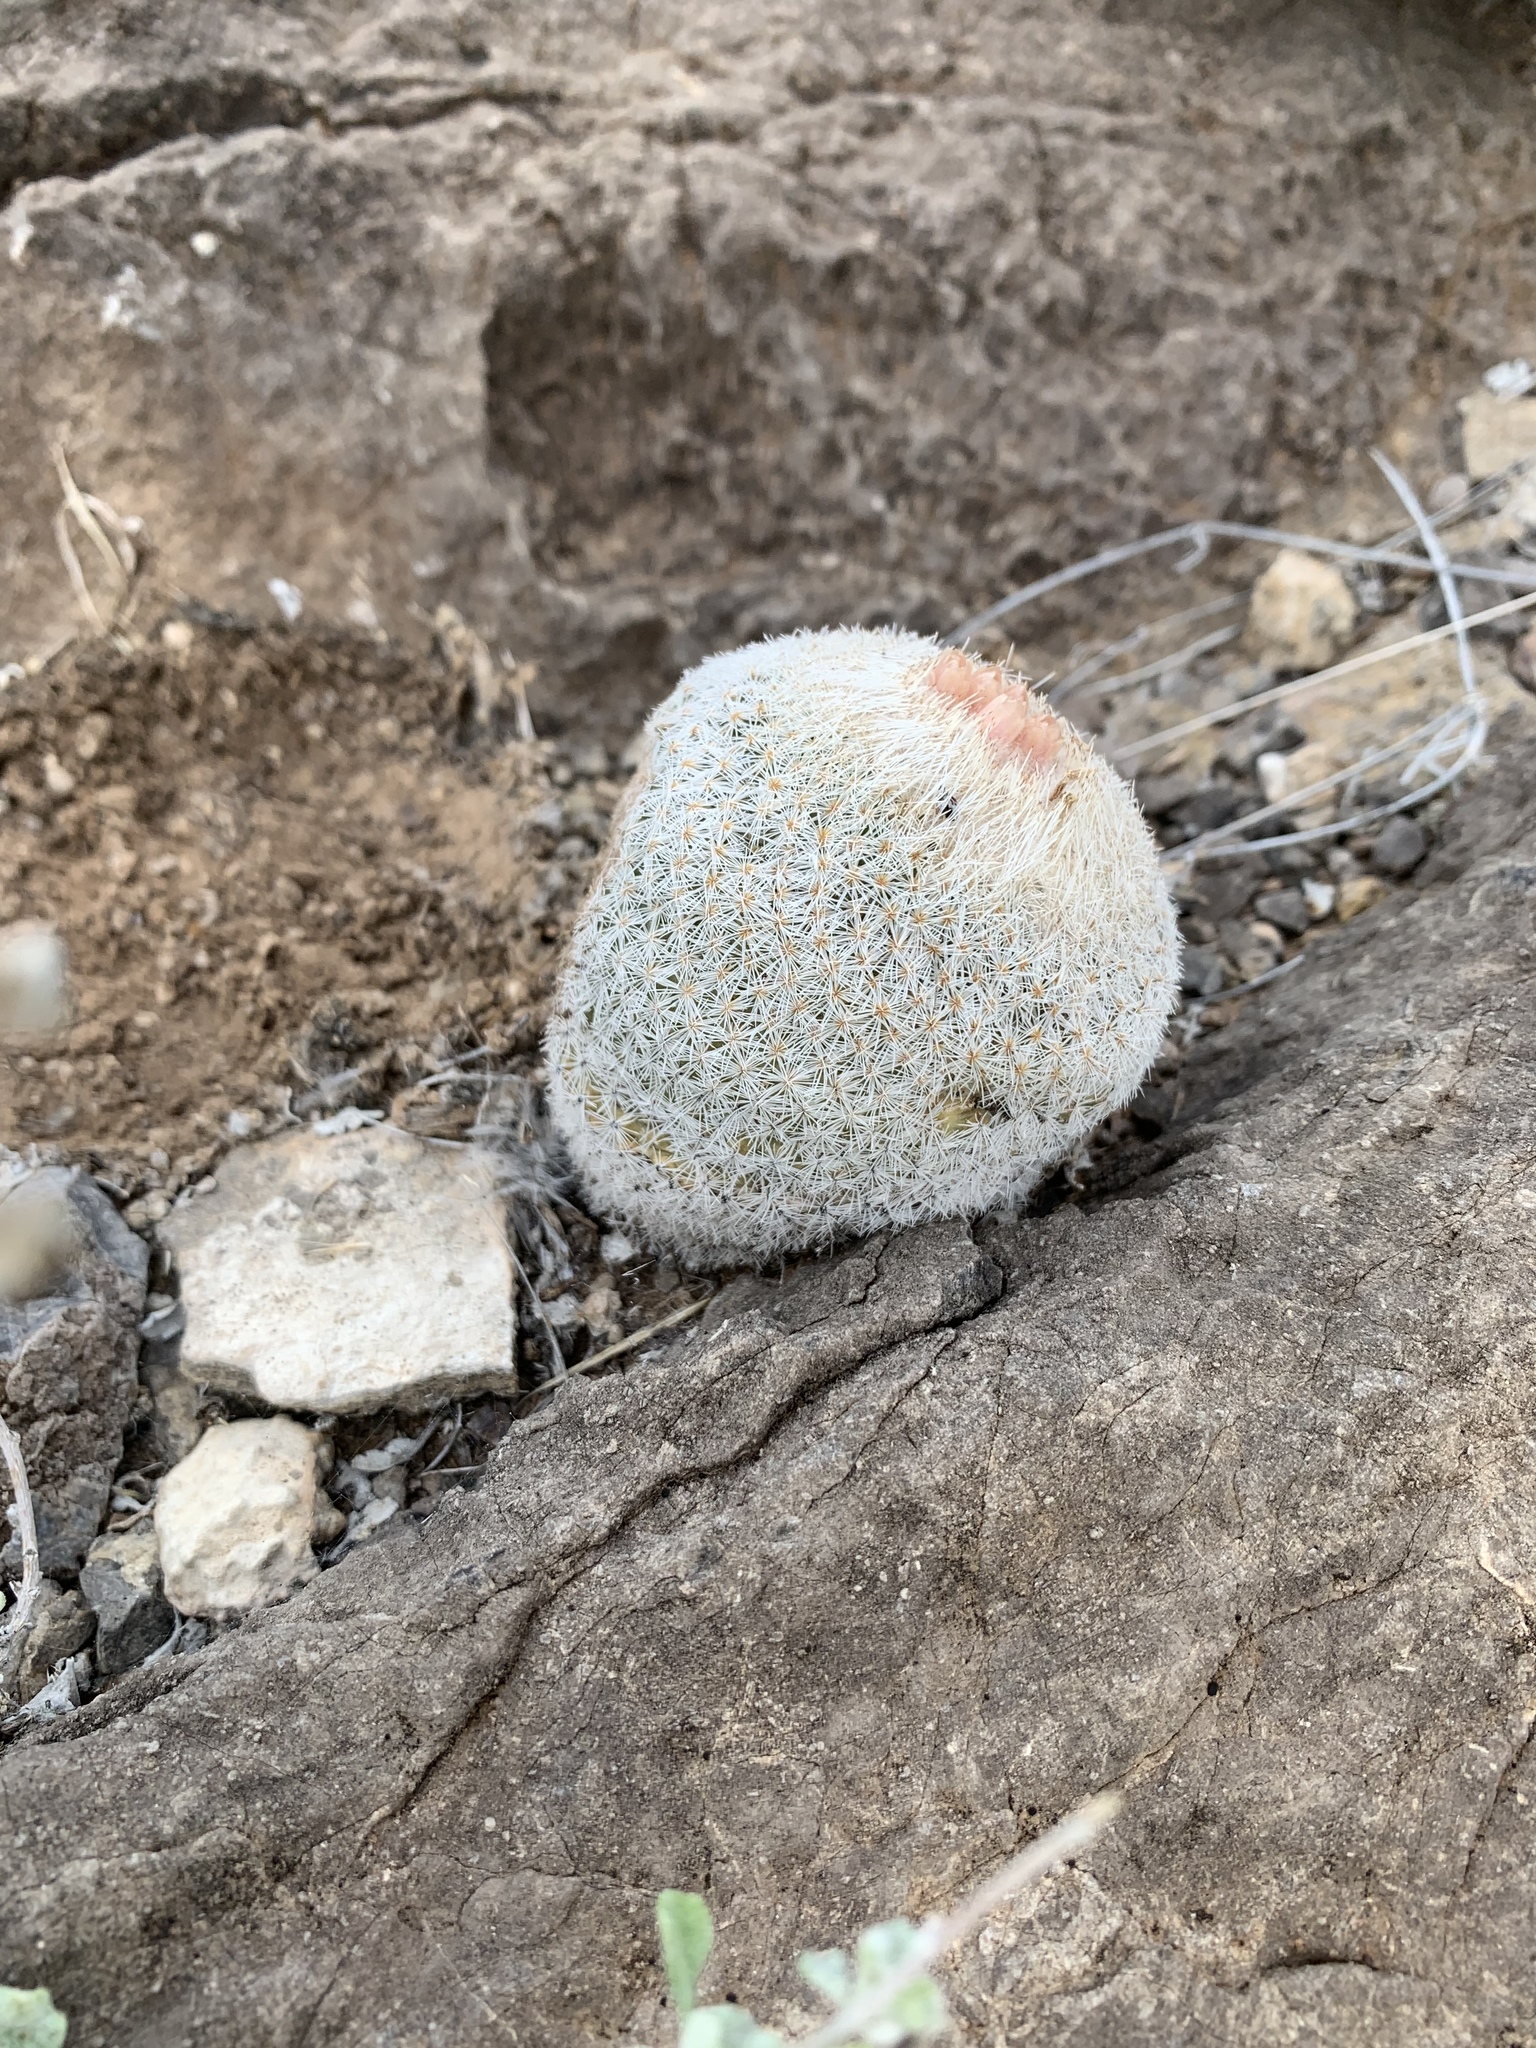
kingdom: Plantae
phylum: Tracheophyta
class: Magnoliopsida
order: Caryophyllales
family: Cactaceae
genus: Epithelantha
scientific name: Epithelantha micromeris
